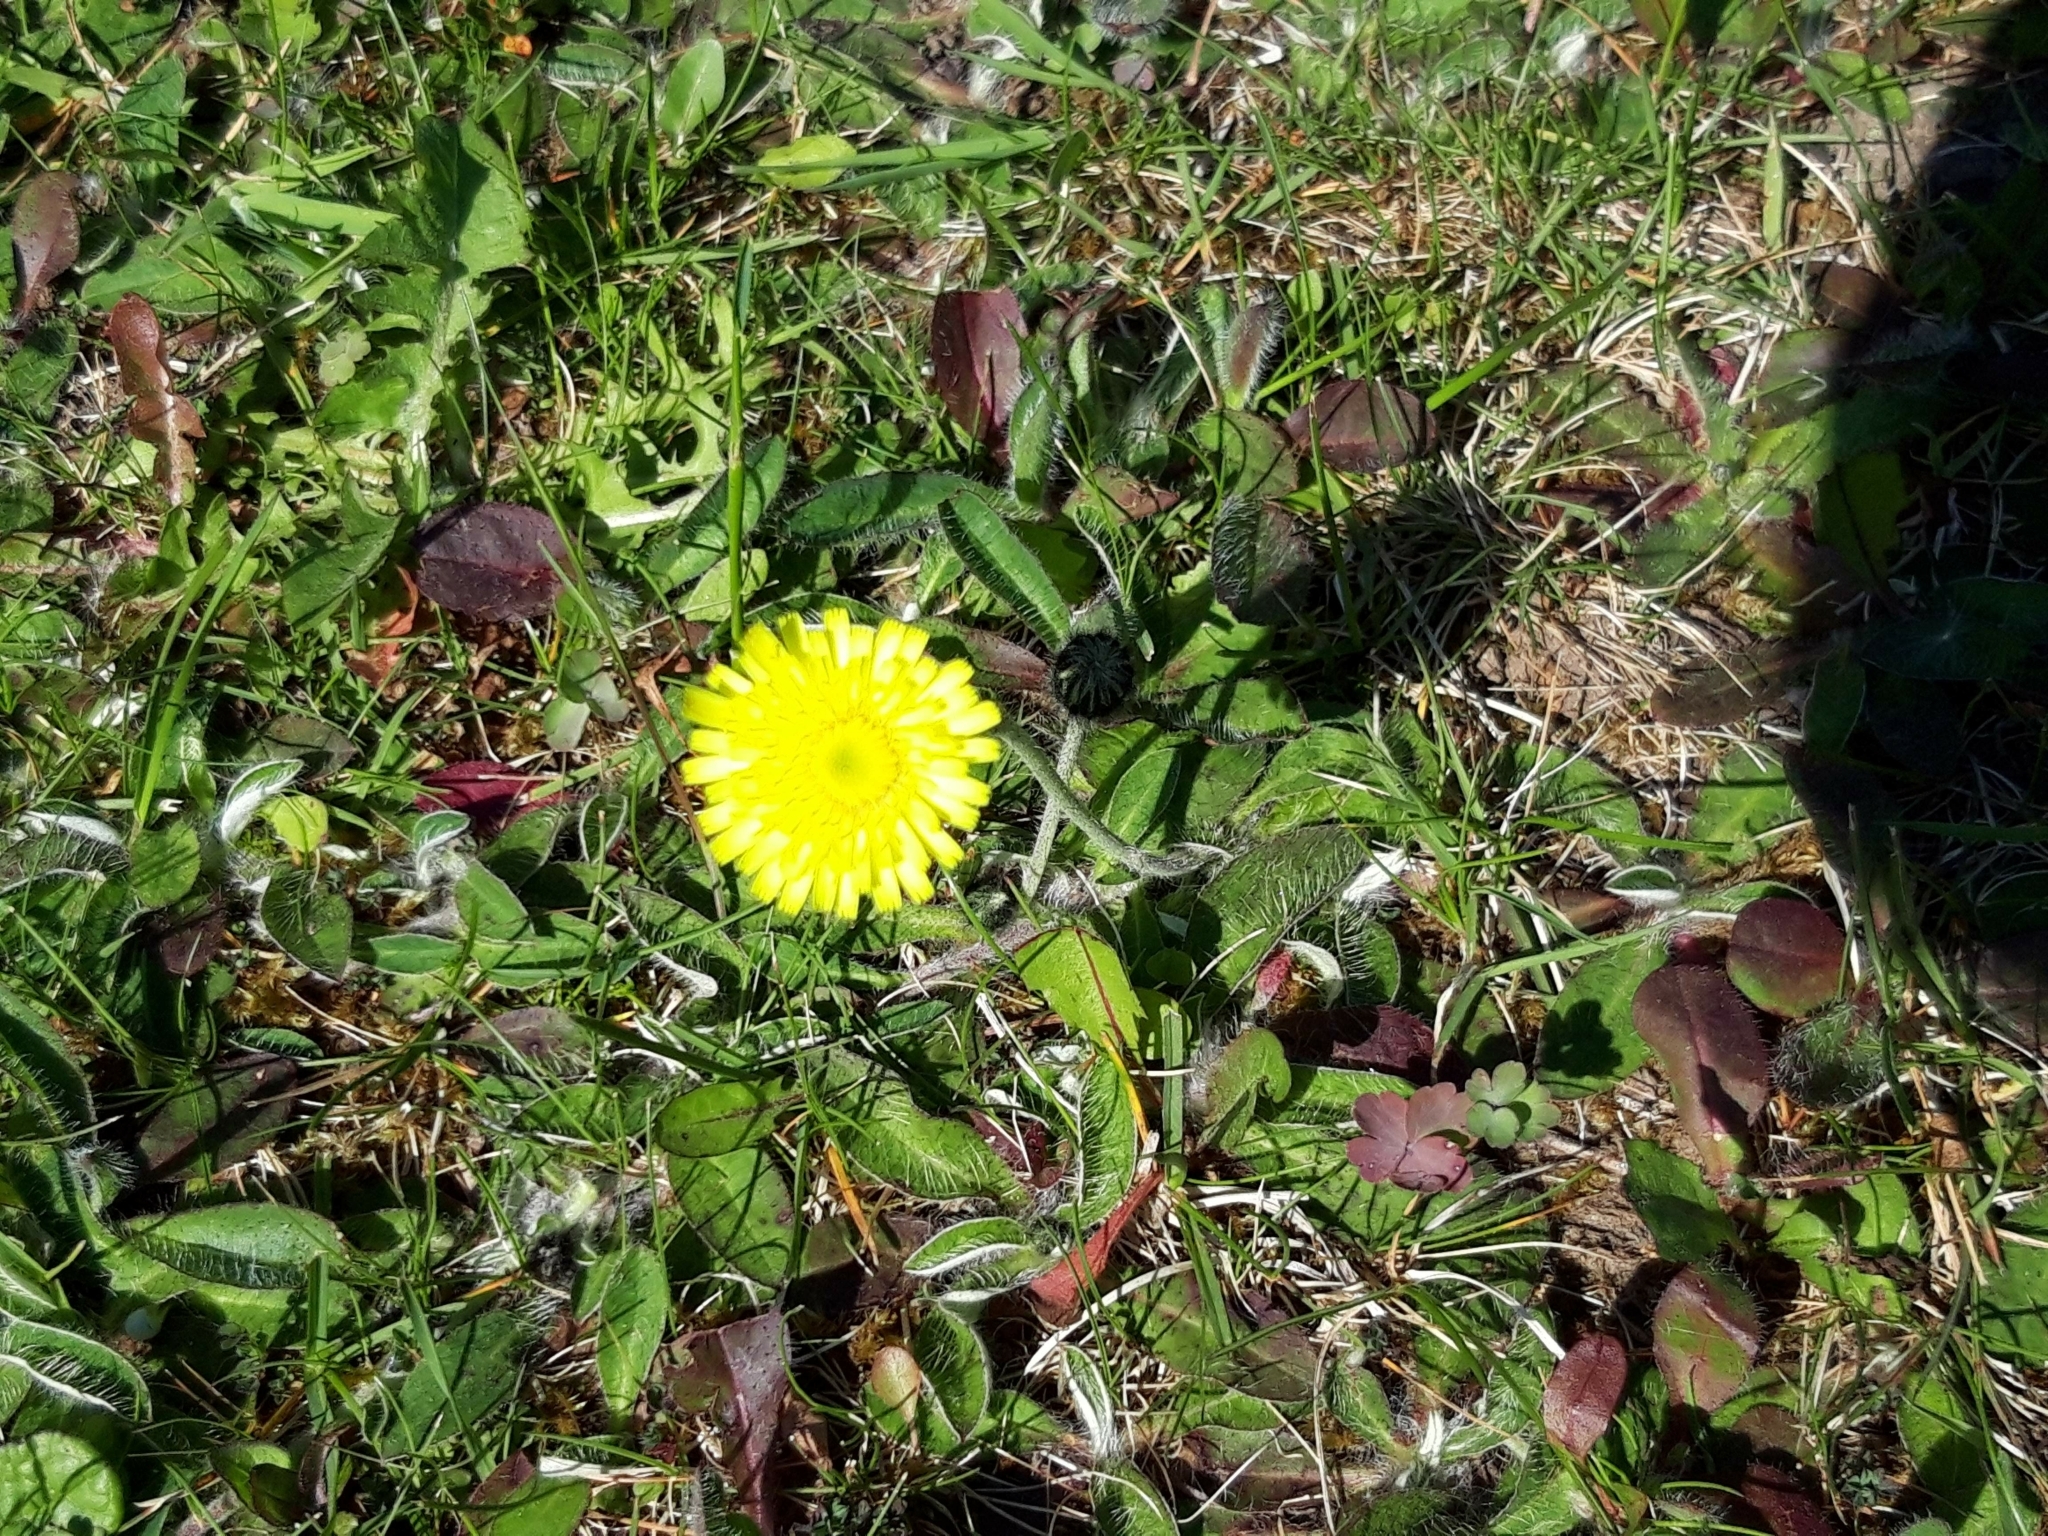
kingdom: Plantae
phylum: Tracheophyta
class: Magnoliopsida
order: Asterales
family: Asteraceae
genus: Pilosella
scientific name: Pilosella officinarum
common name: Mouse-ear hawkweed
